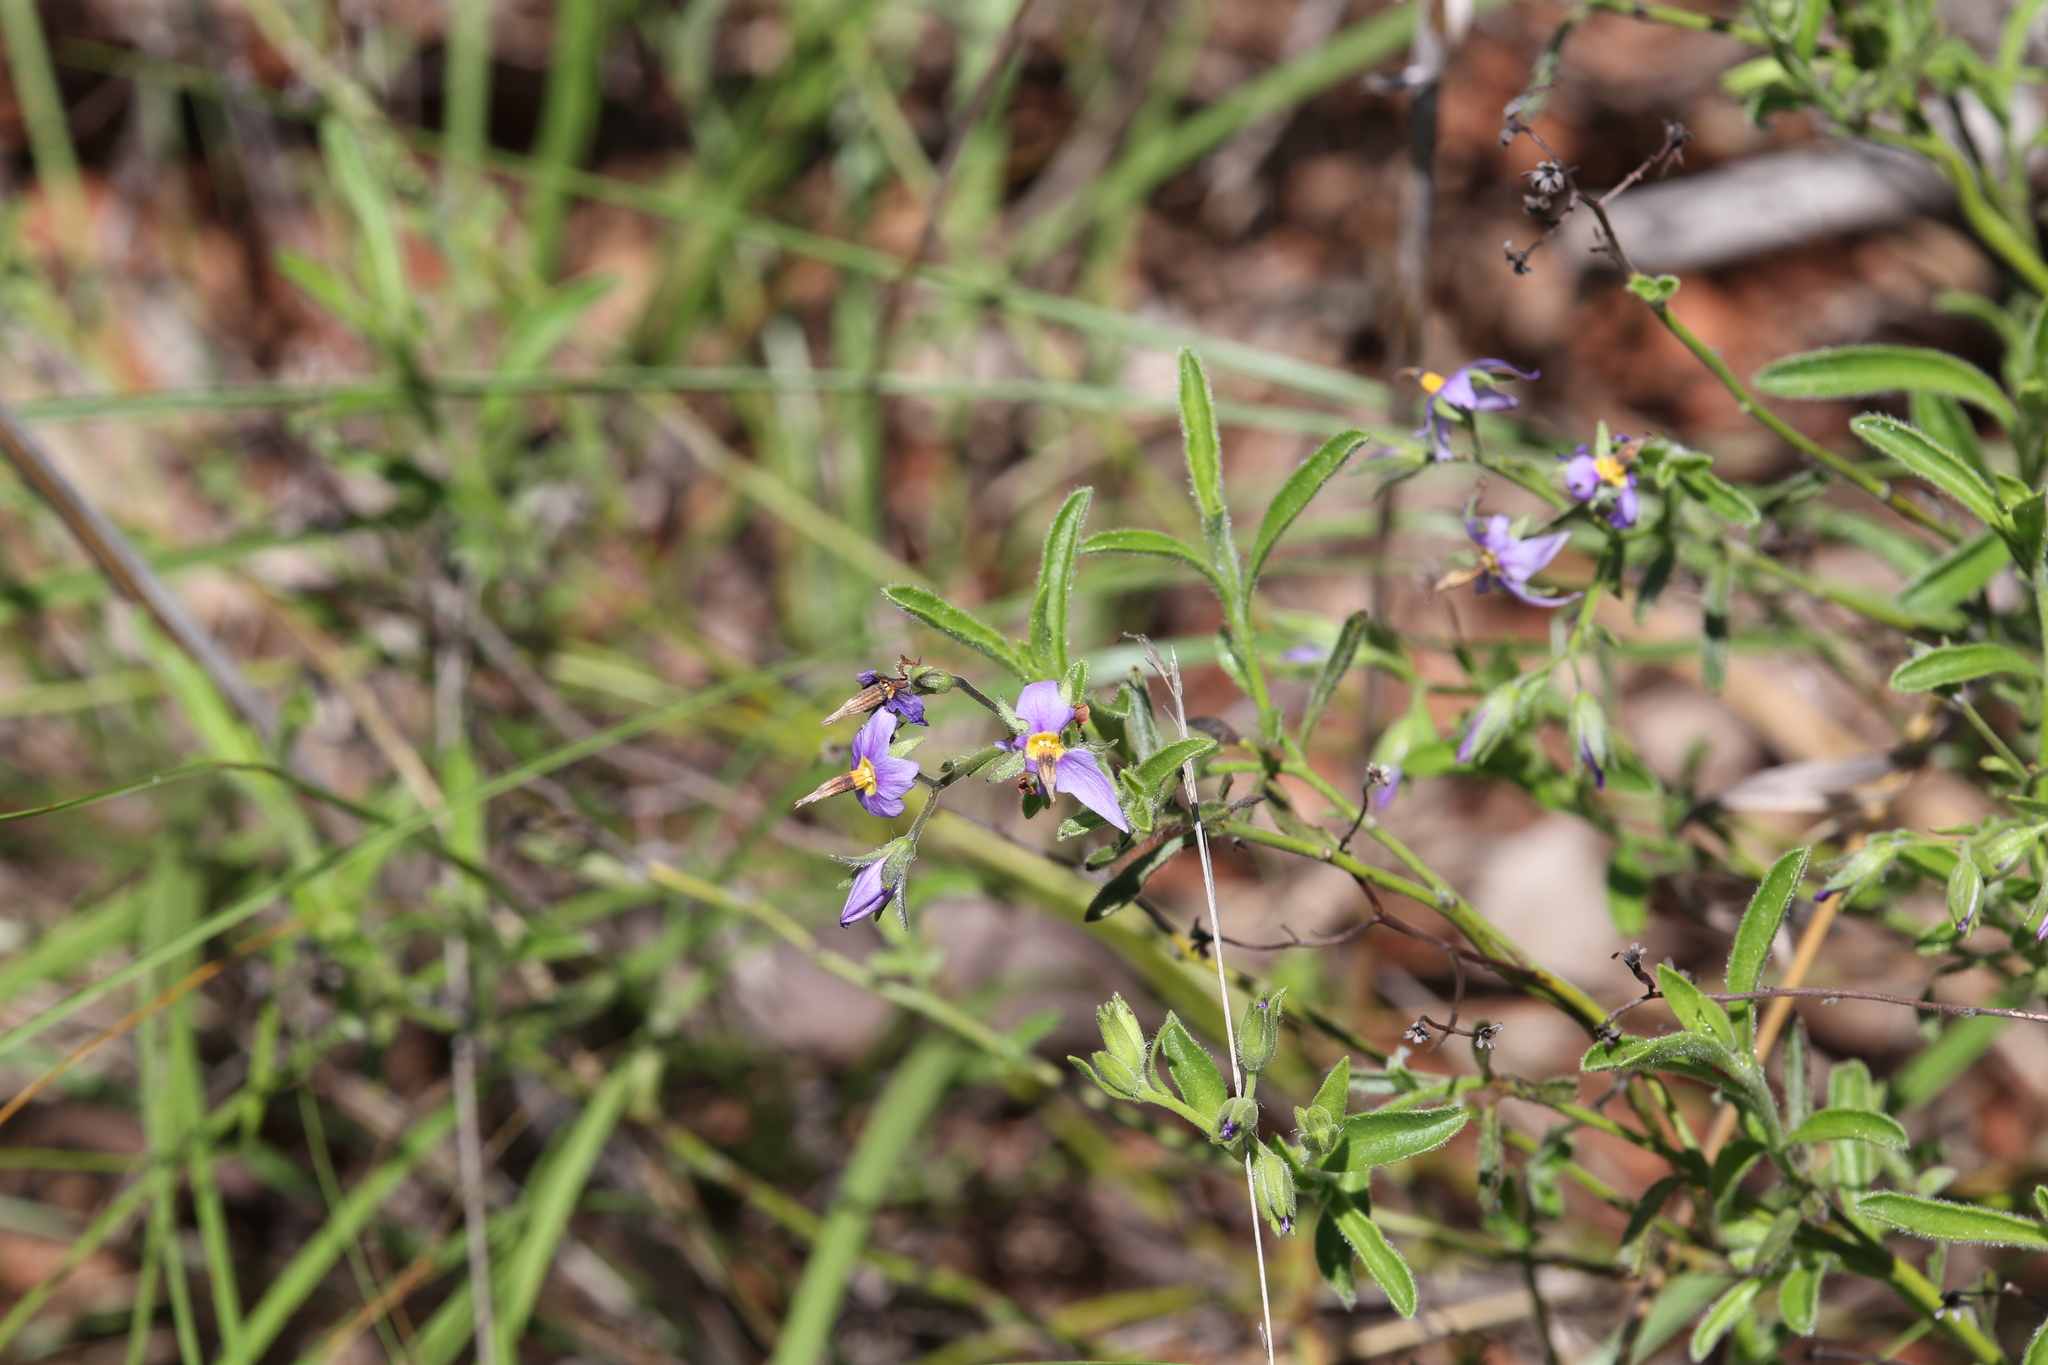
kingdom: Plantae
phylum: Tracheophyta
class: Magnoliopsida
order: Boraginales
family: Ehretiaceae
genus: Halgania
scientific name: Halgania solanacea
